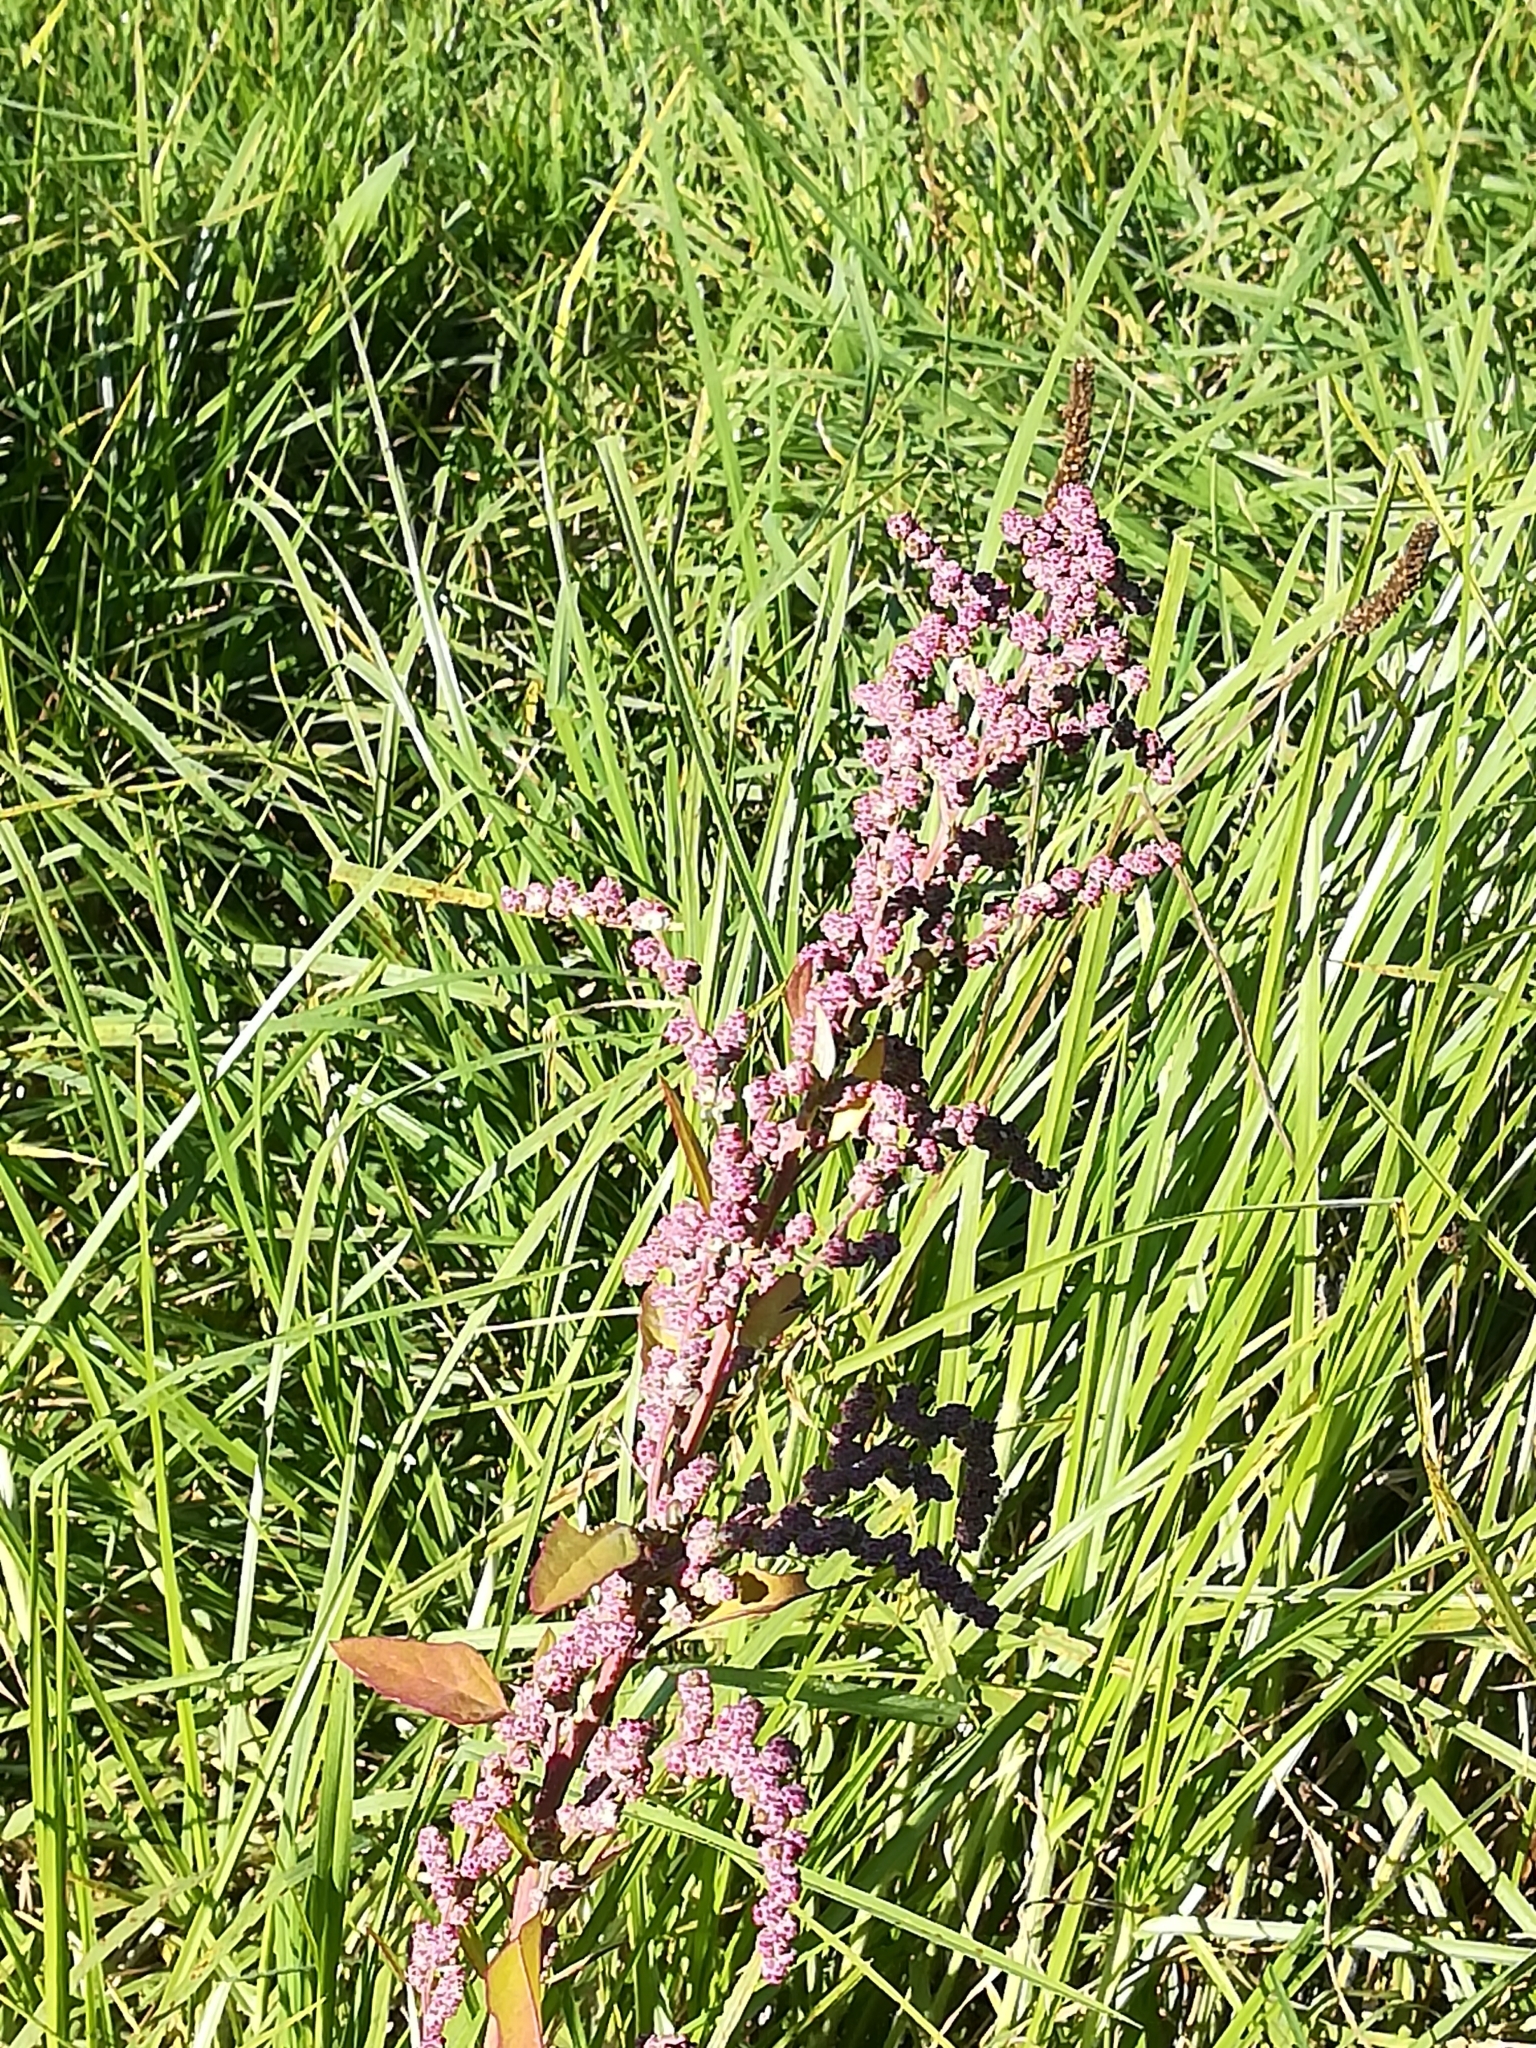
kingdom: Plantae
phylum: Tracheophyta
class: Magnoliopsida
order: Caryophyllales
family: Amaranthaceae
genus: Chenopodium
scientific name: Chenopodium album
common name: Fat-hen
